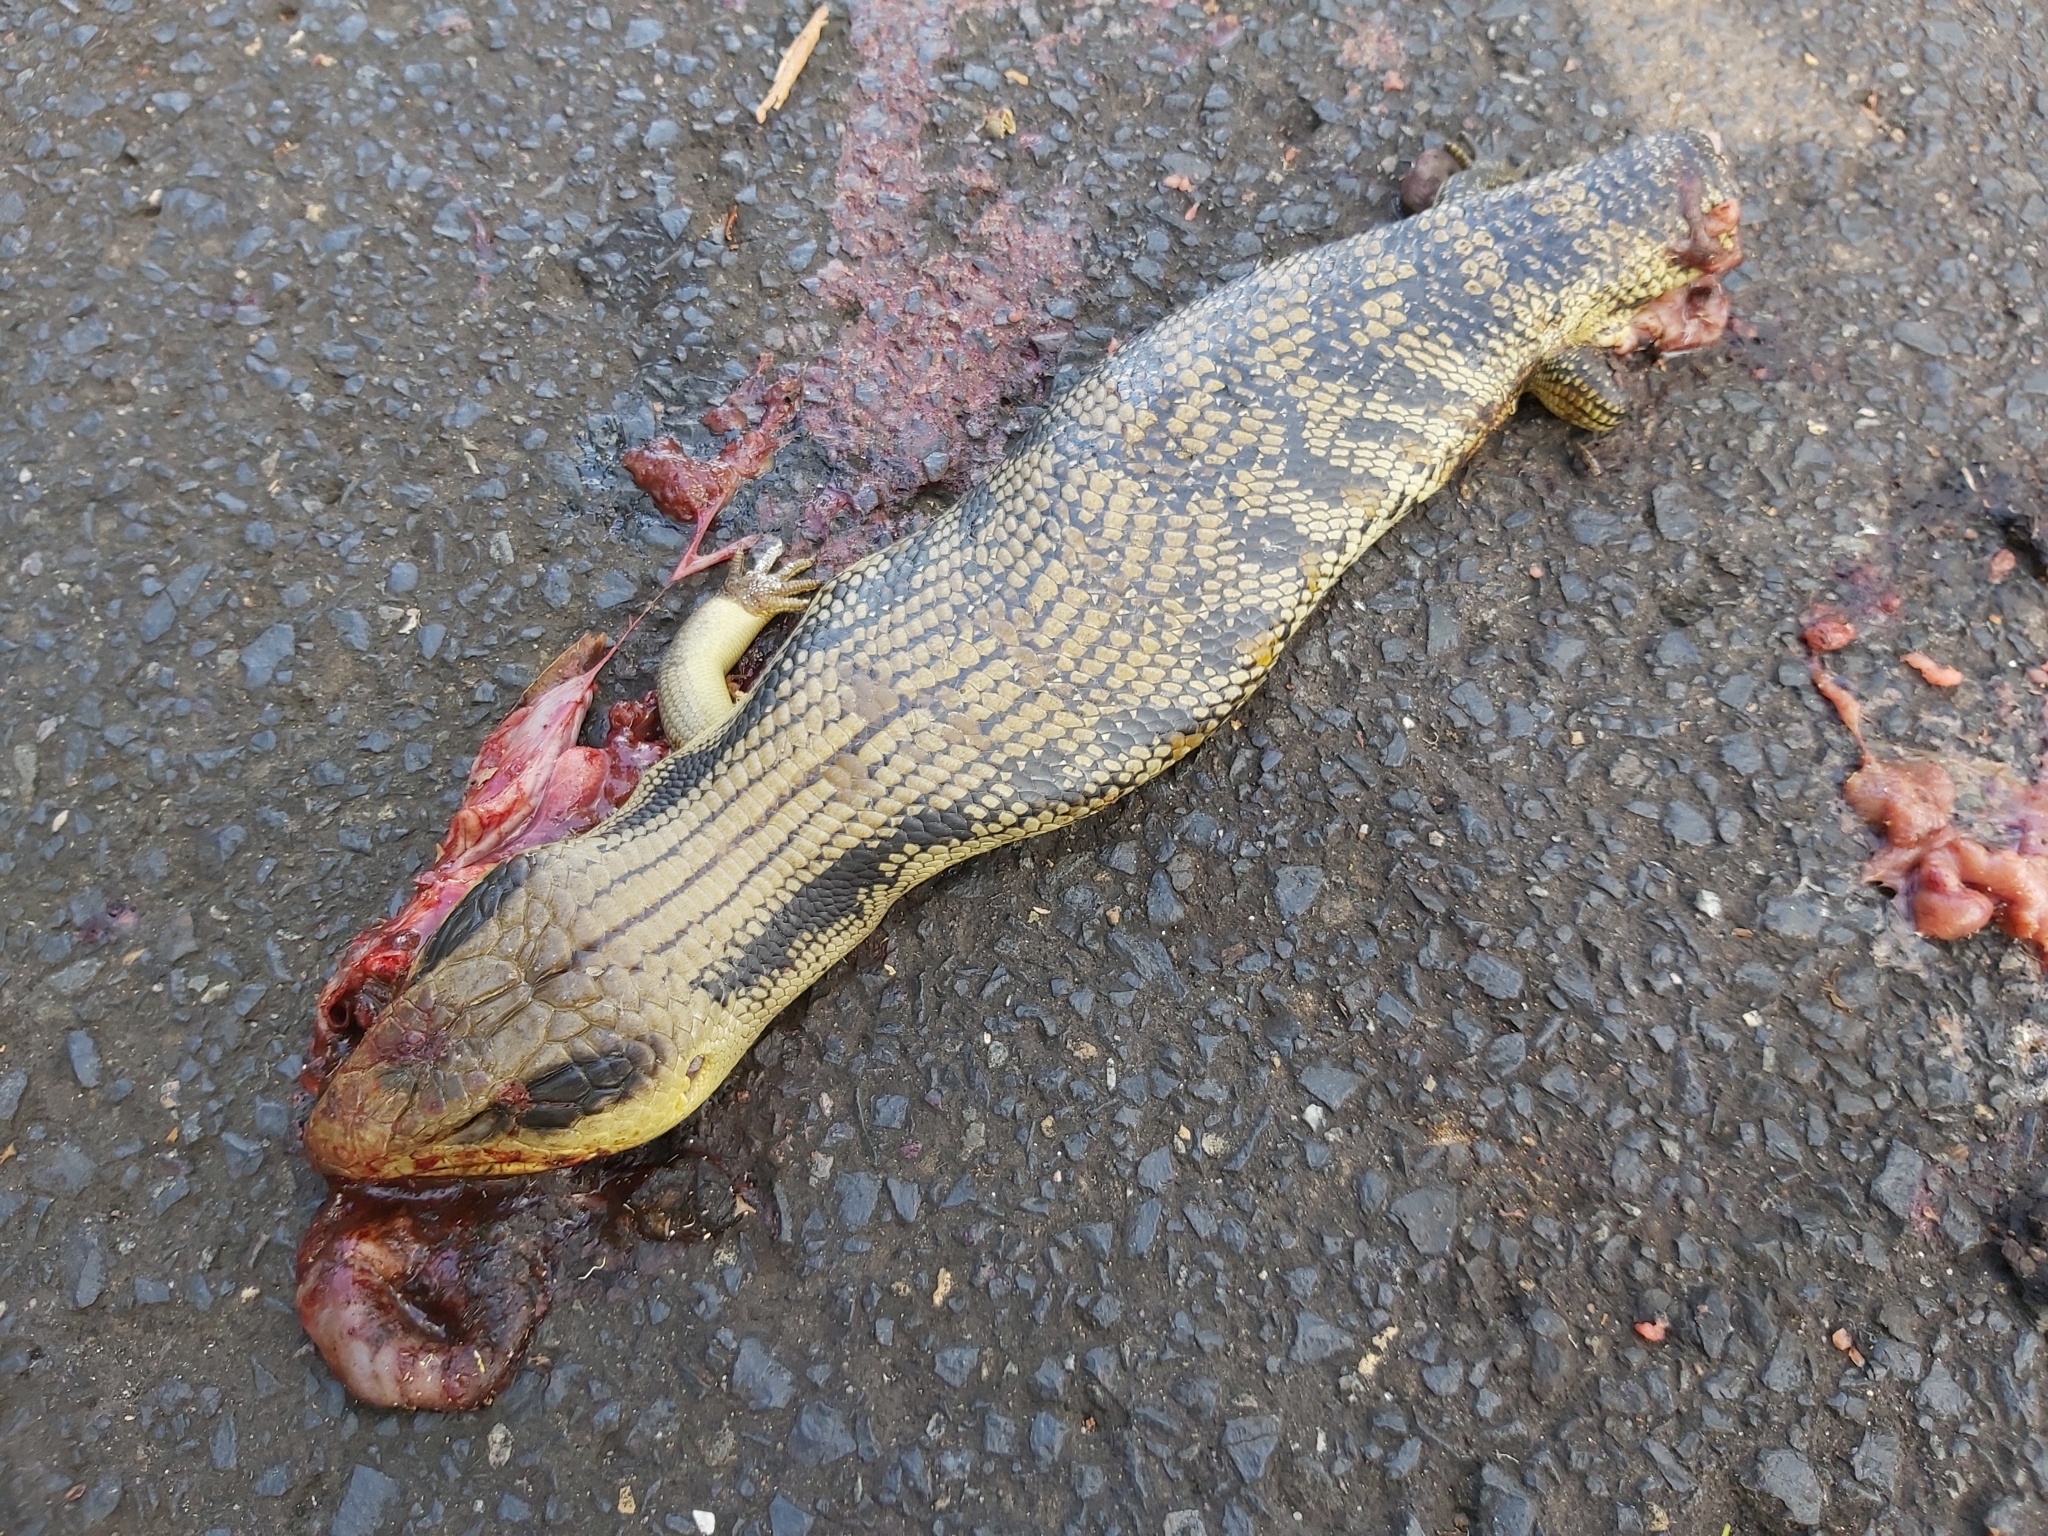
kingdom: Animalia
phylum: Chordata
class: Squamata
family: Scincidae
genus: Tiliqua
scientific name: Tiliqua scincoides
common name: Common bluetongue
